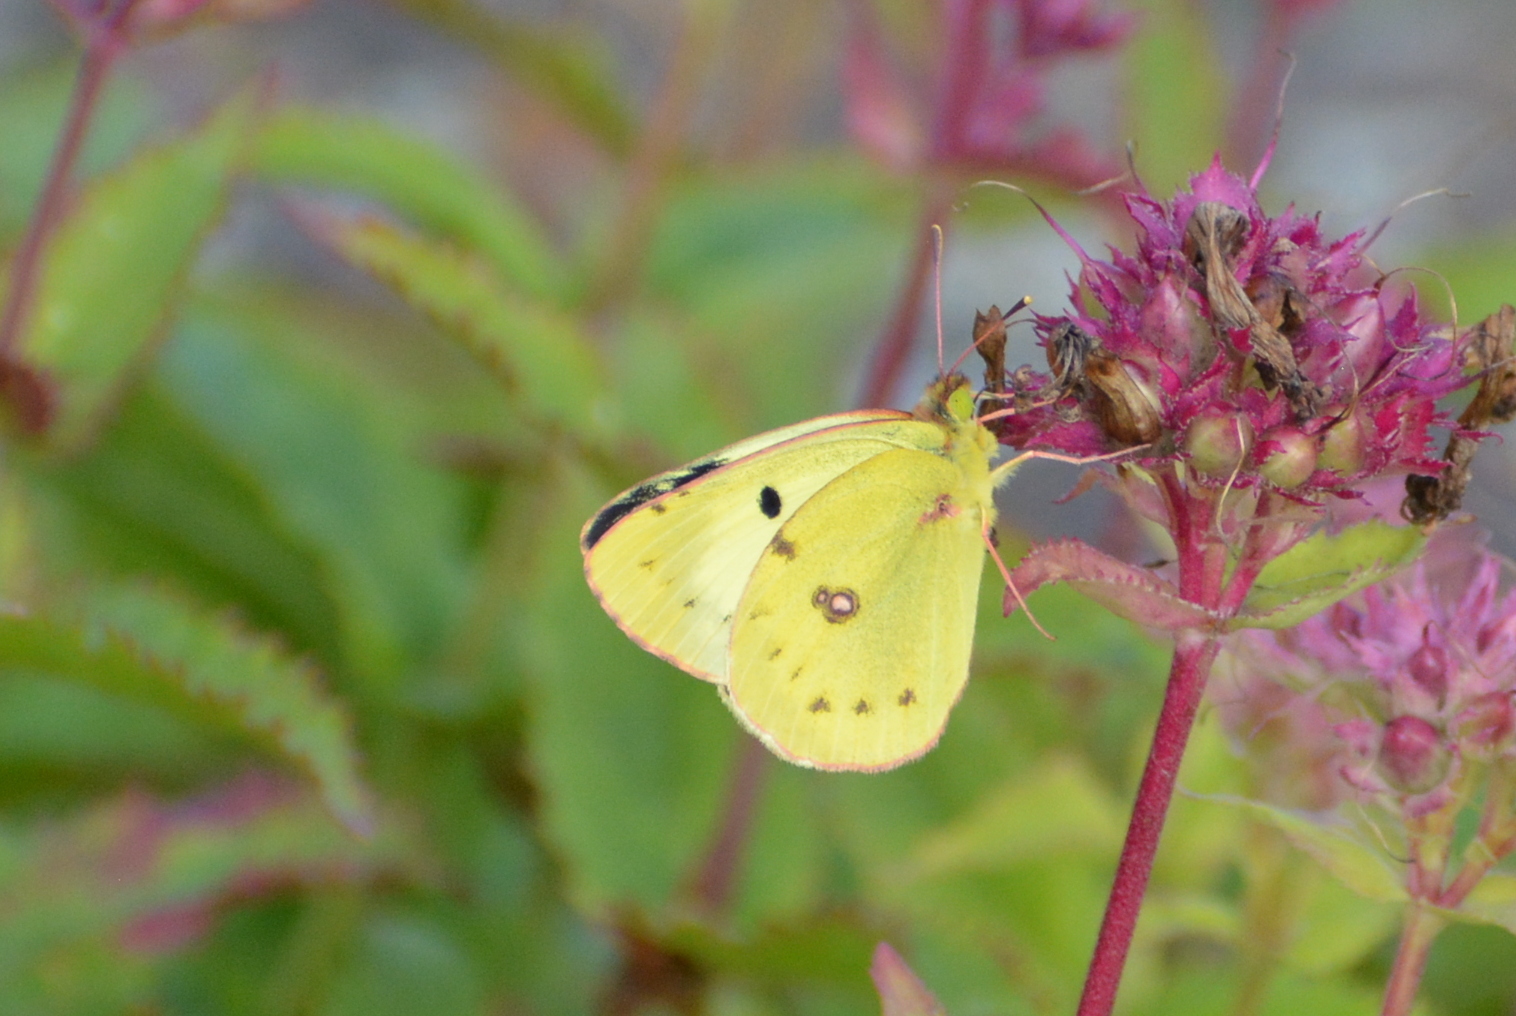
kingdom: Animalia
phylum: Arthropoda
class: Insecta
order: Lepidoptera
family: Pieridae
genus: Colias
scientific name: Colias alfacariensis
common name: Berger's clouded yellow
